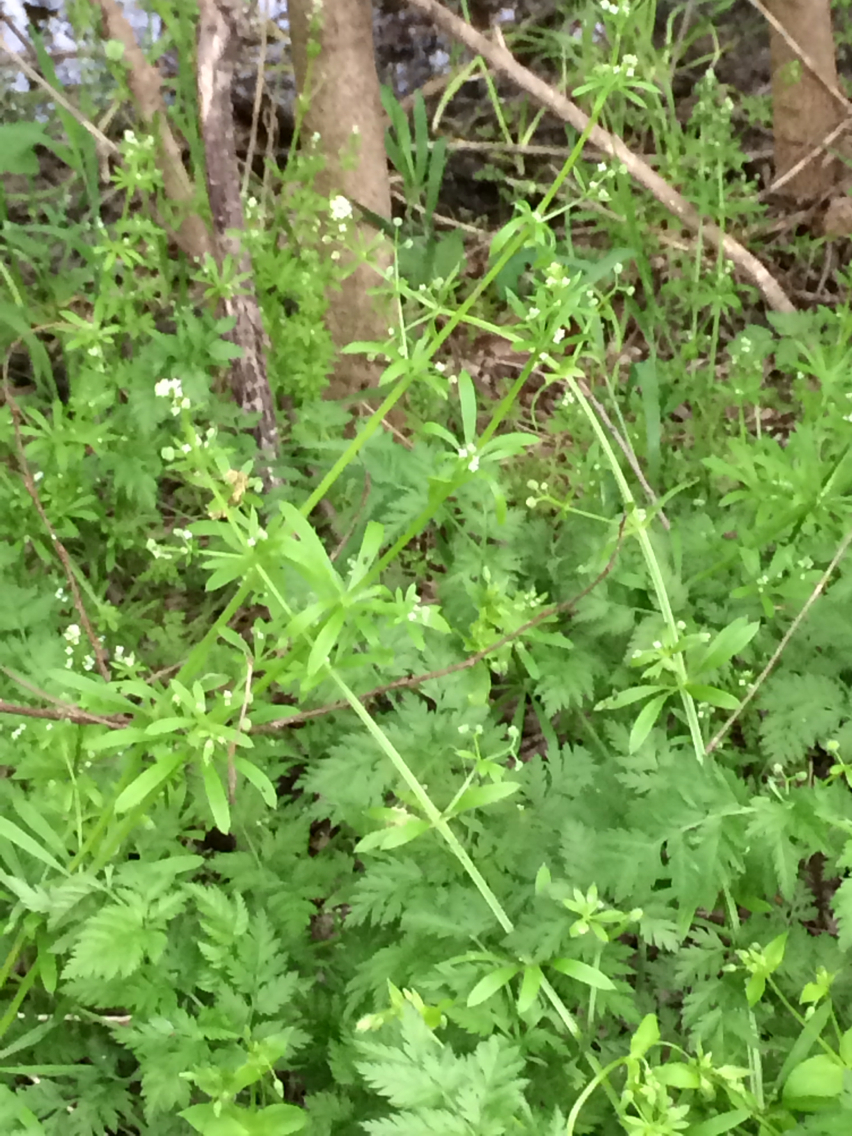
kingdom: Plantae
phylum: Tracheophyta
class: Magnoliopsida
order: Gentianales
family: Rubiaceae
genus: Galium
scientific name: Galium aparine
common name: Cleavers
